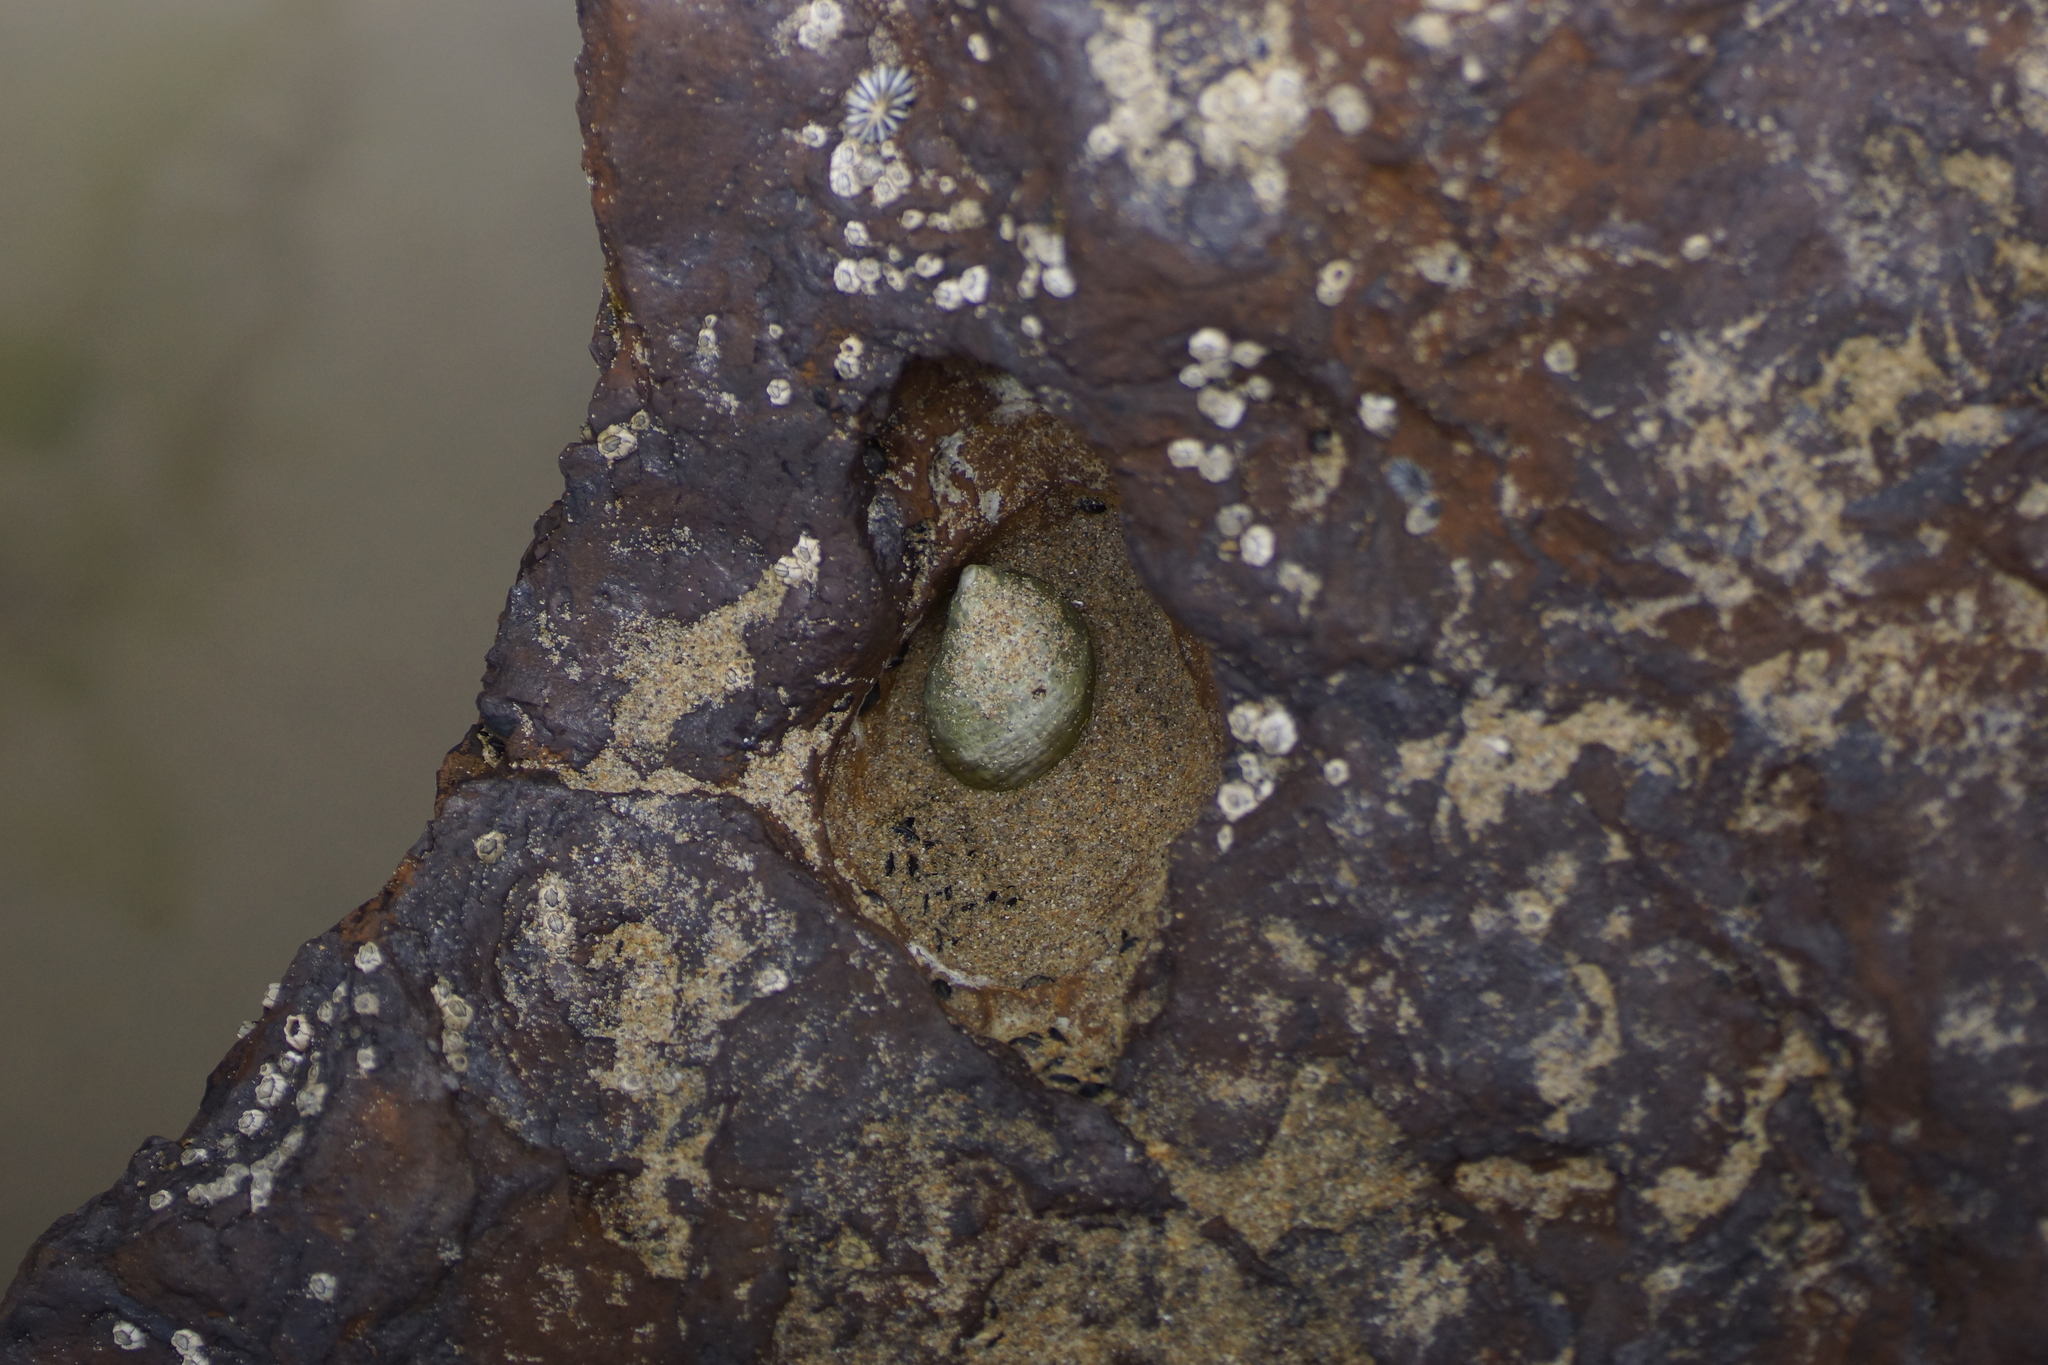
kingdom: Animalia
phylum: Mollusca
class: Gastropoda
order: Neogastropoda
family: Muricidae
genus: Dicathais
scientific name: Dicathais orbita
